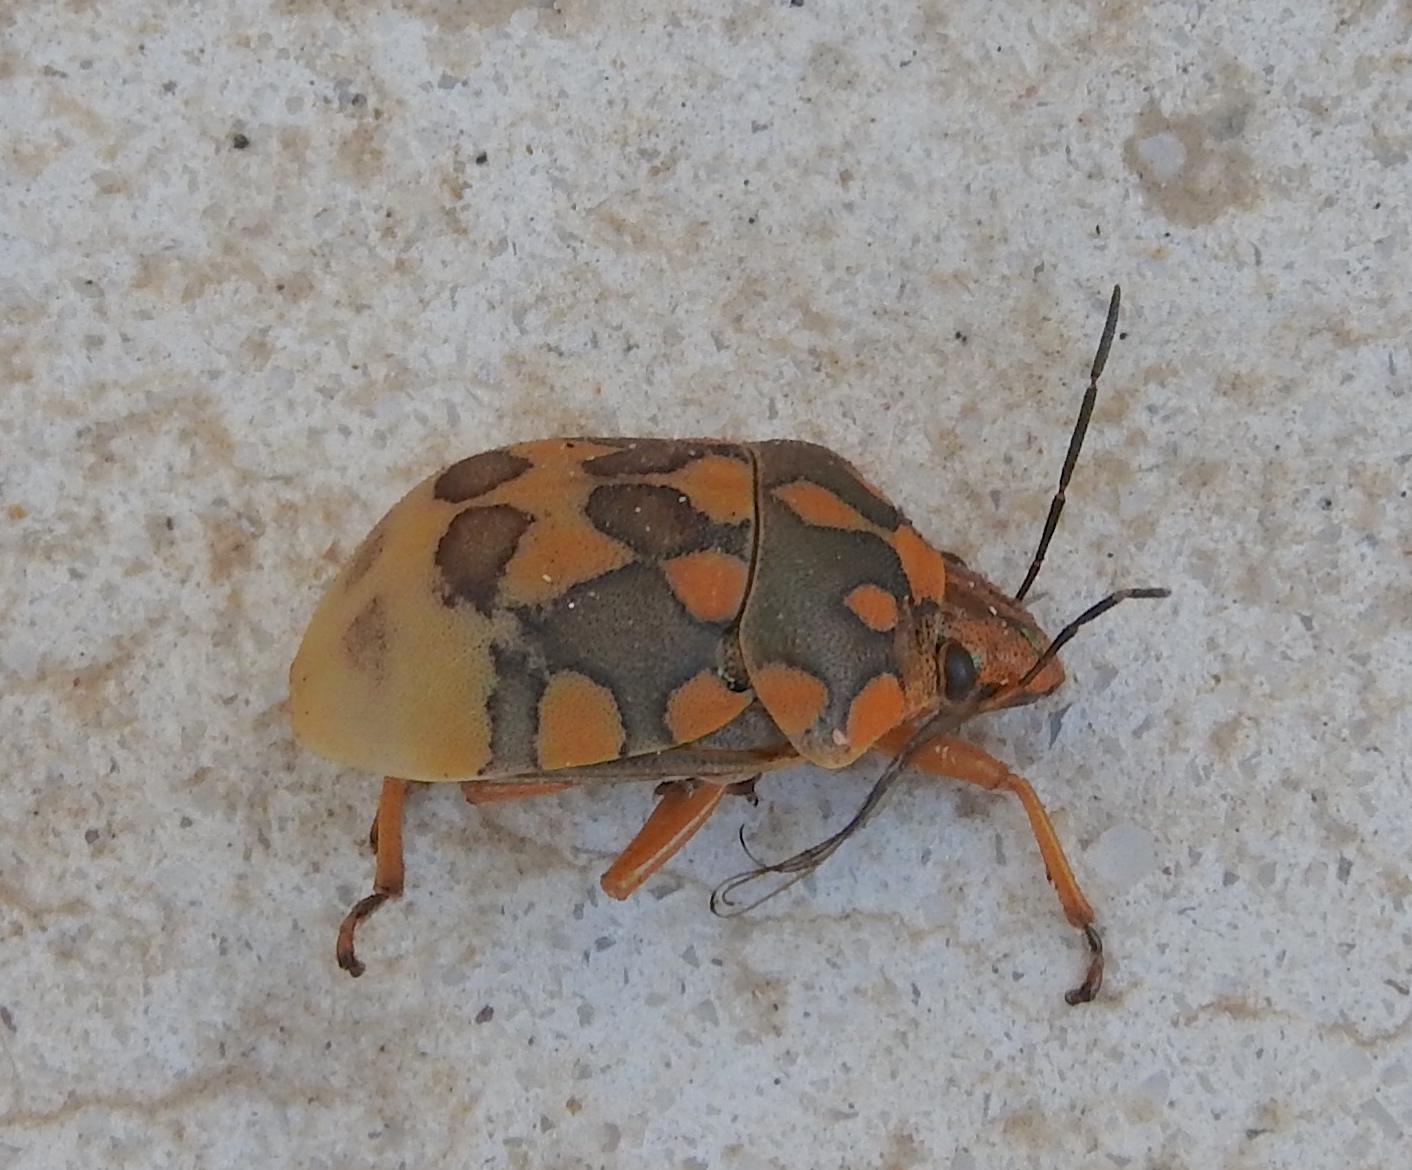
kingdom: Animalia
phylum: Arthropoda
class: Insecta
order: Hemiptera
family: Scutelleridae
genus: Pachycoris
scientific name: Pachycoris torridus
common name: Torrid jewel bug
